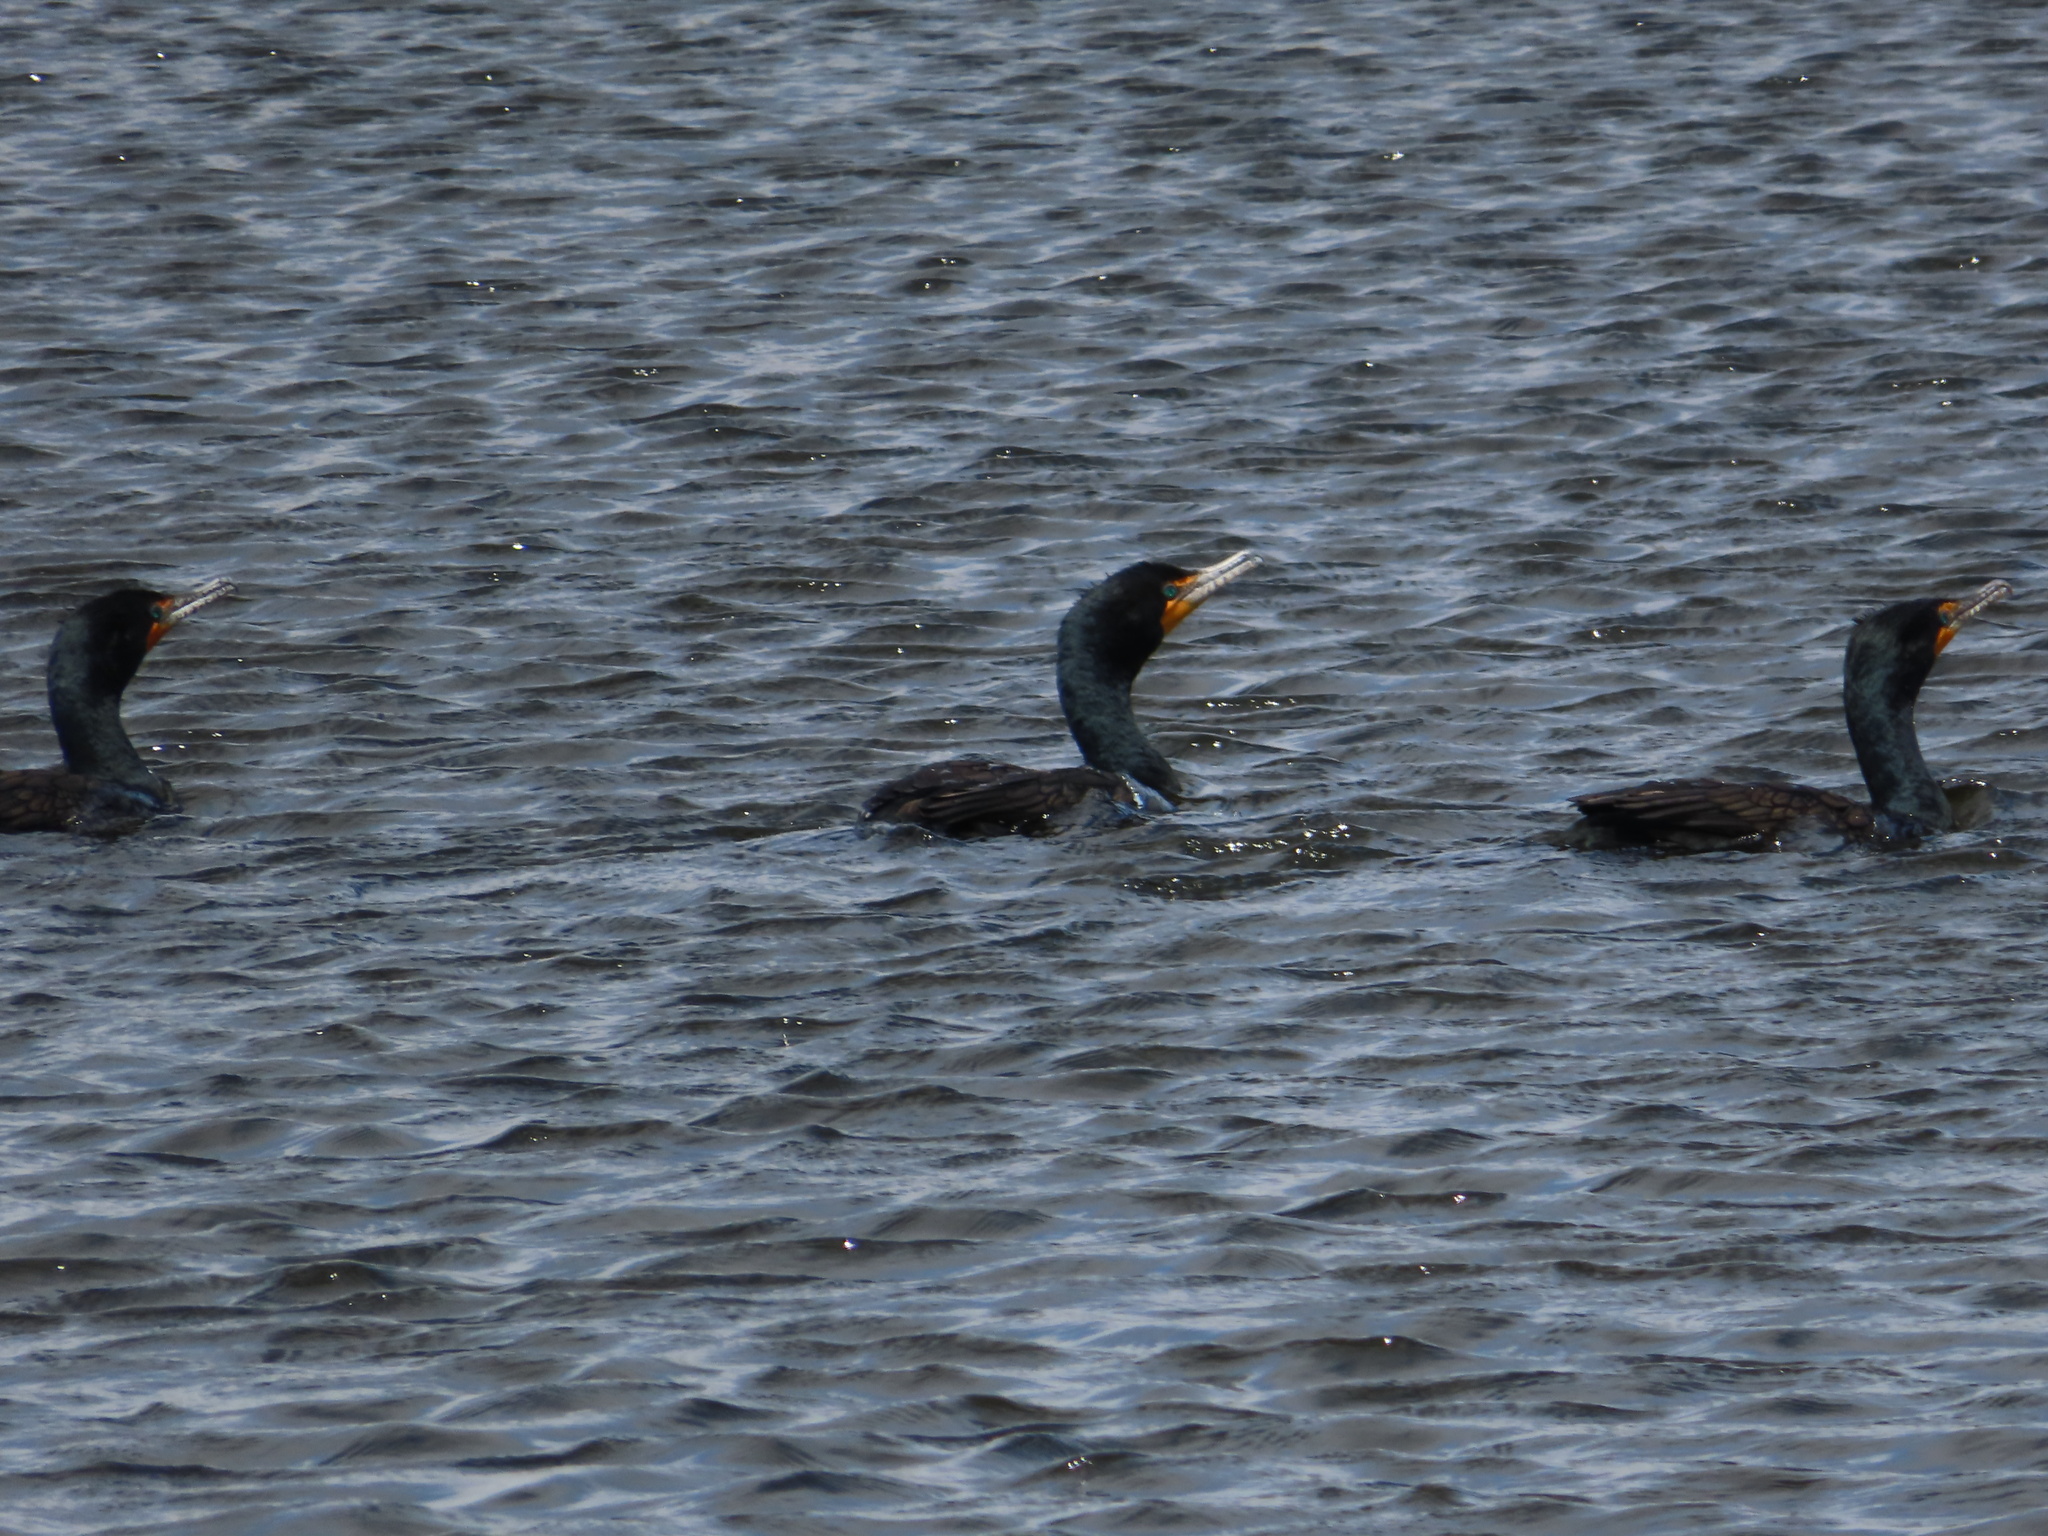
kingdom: Animalia
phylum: Chordata
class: Aves
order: Suliformes
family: Phalacrocoracidae
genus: Phalacrocorax
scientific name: Phalacrocorax auritus
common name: Double-crested cormorant
